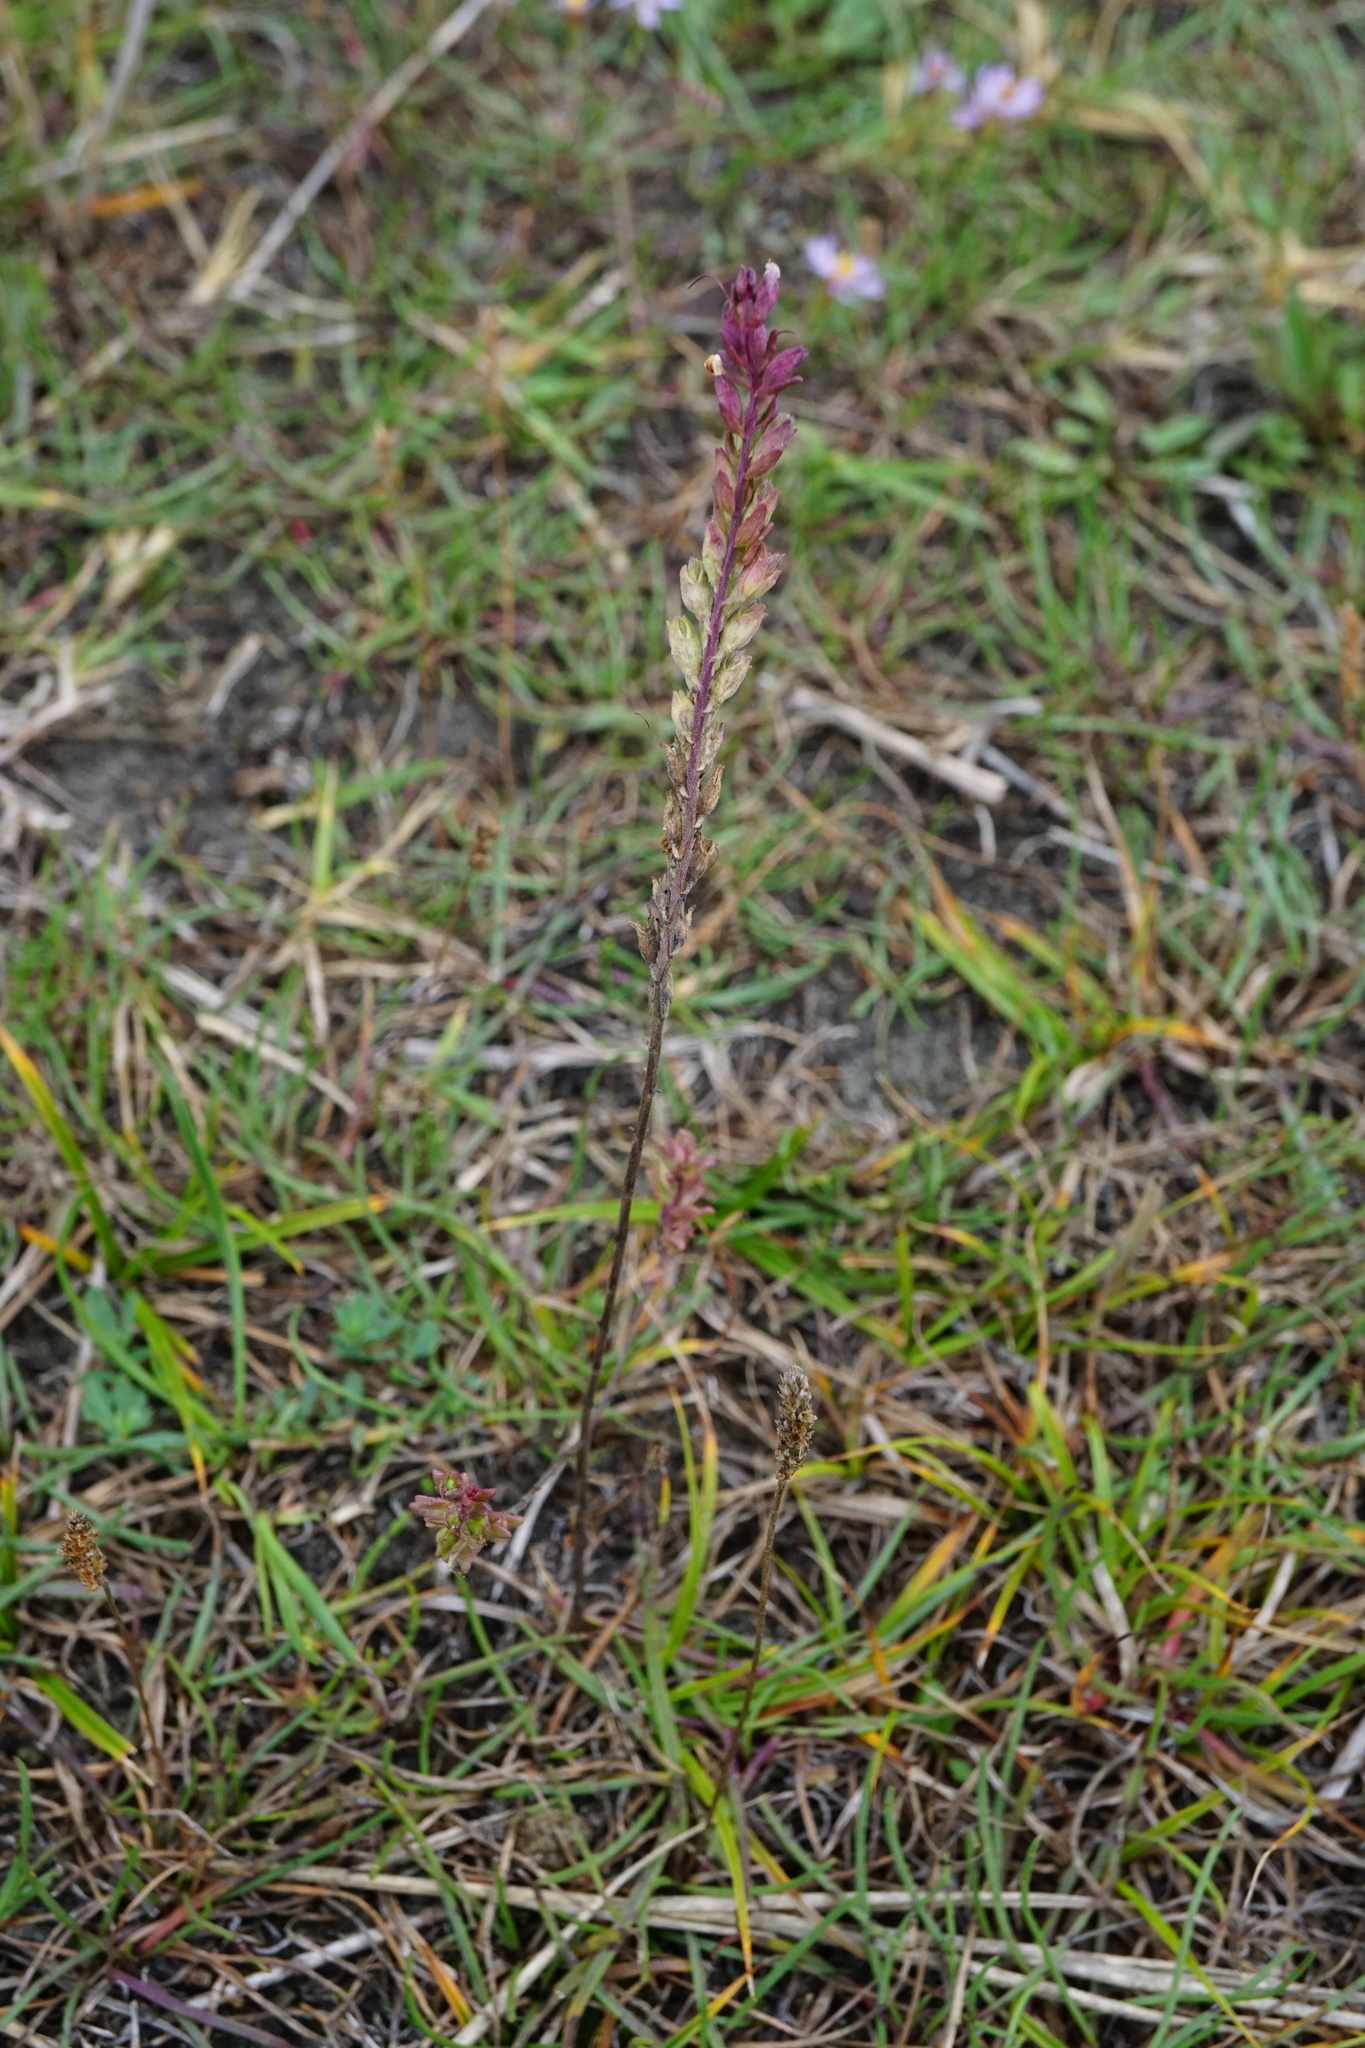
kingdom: Plantae
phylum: Tracheophyta
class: Magnoliopsida
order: Lamiales
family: Orobanchaceae
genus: Odontites
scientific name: Odontites vulgaris
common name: Broomrape
